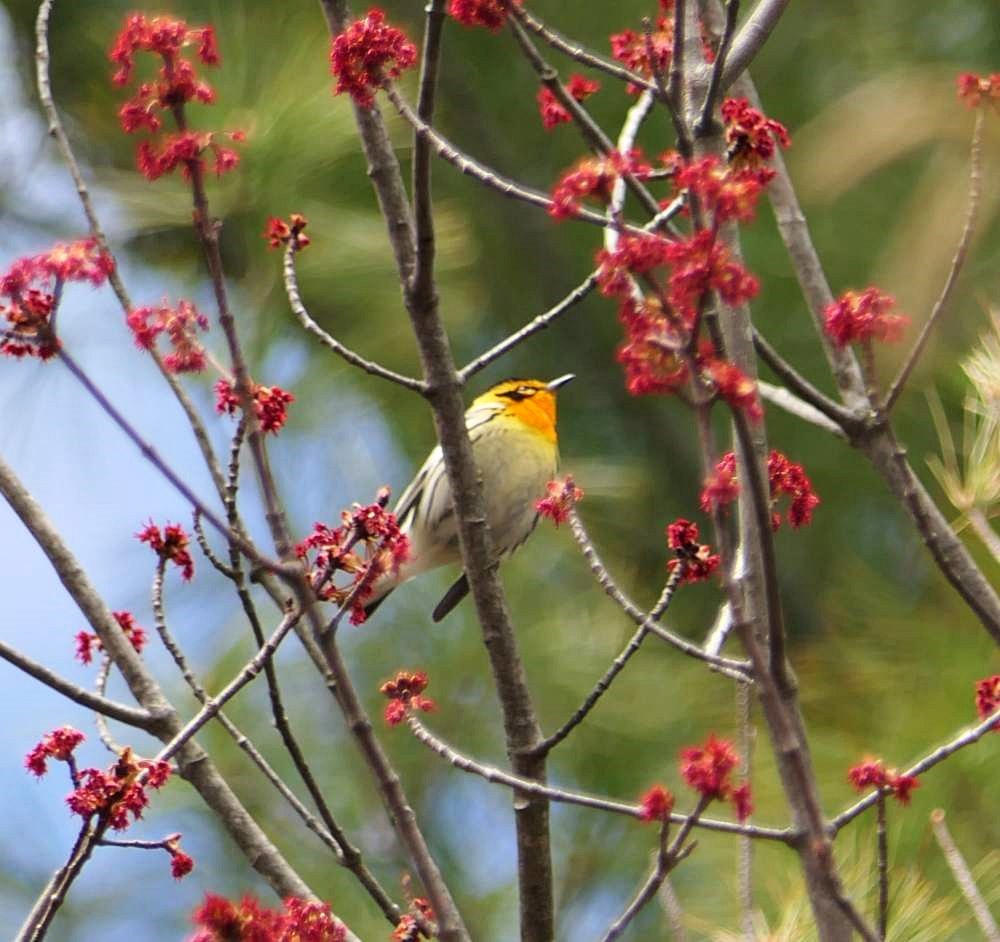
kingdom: Animalia
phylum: Chordata
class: Aves
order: Passeriformes
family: Parulidae
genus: Setophaga
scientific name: Setophaga fusca
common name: Blackburnian warbler
